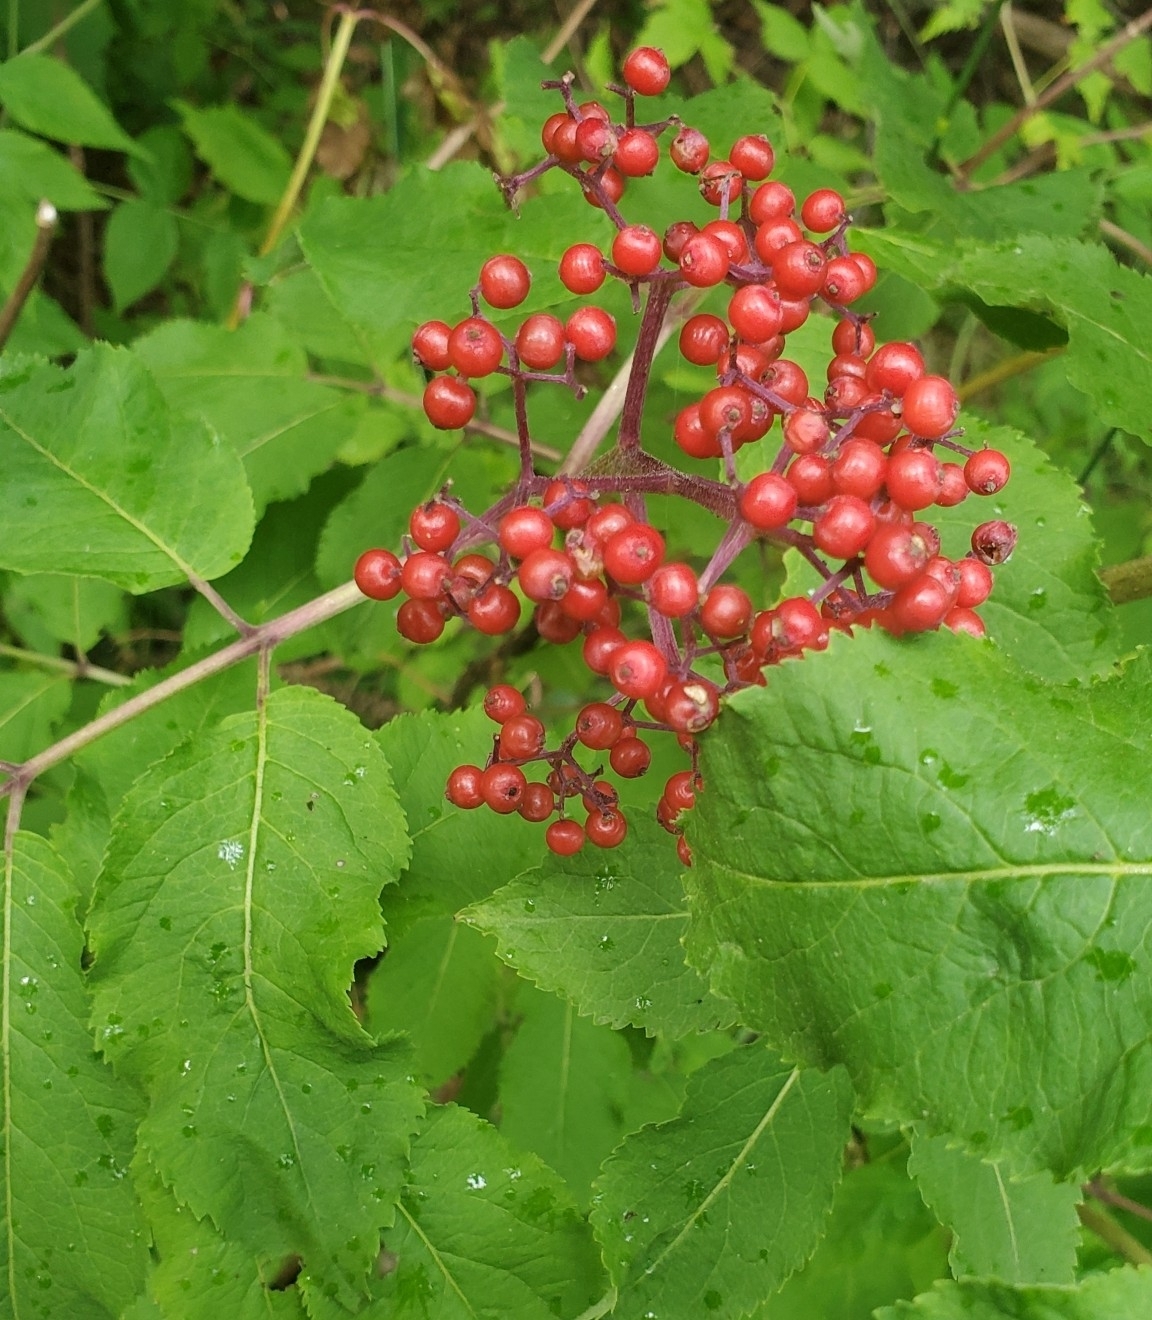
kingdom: Plantae
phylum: Tracheophyta
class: Magnoliopsida
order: Dipsacales
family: Viburnaceae
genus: Sambucus
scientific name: Sambucus racemosa
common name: Red-berried elder
